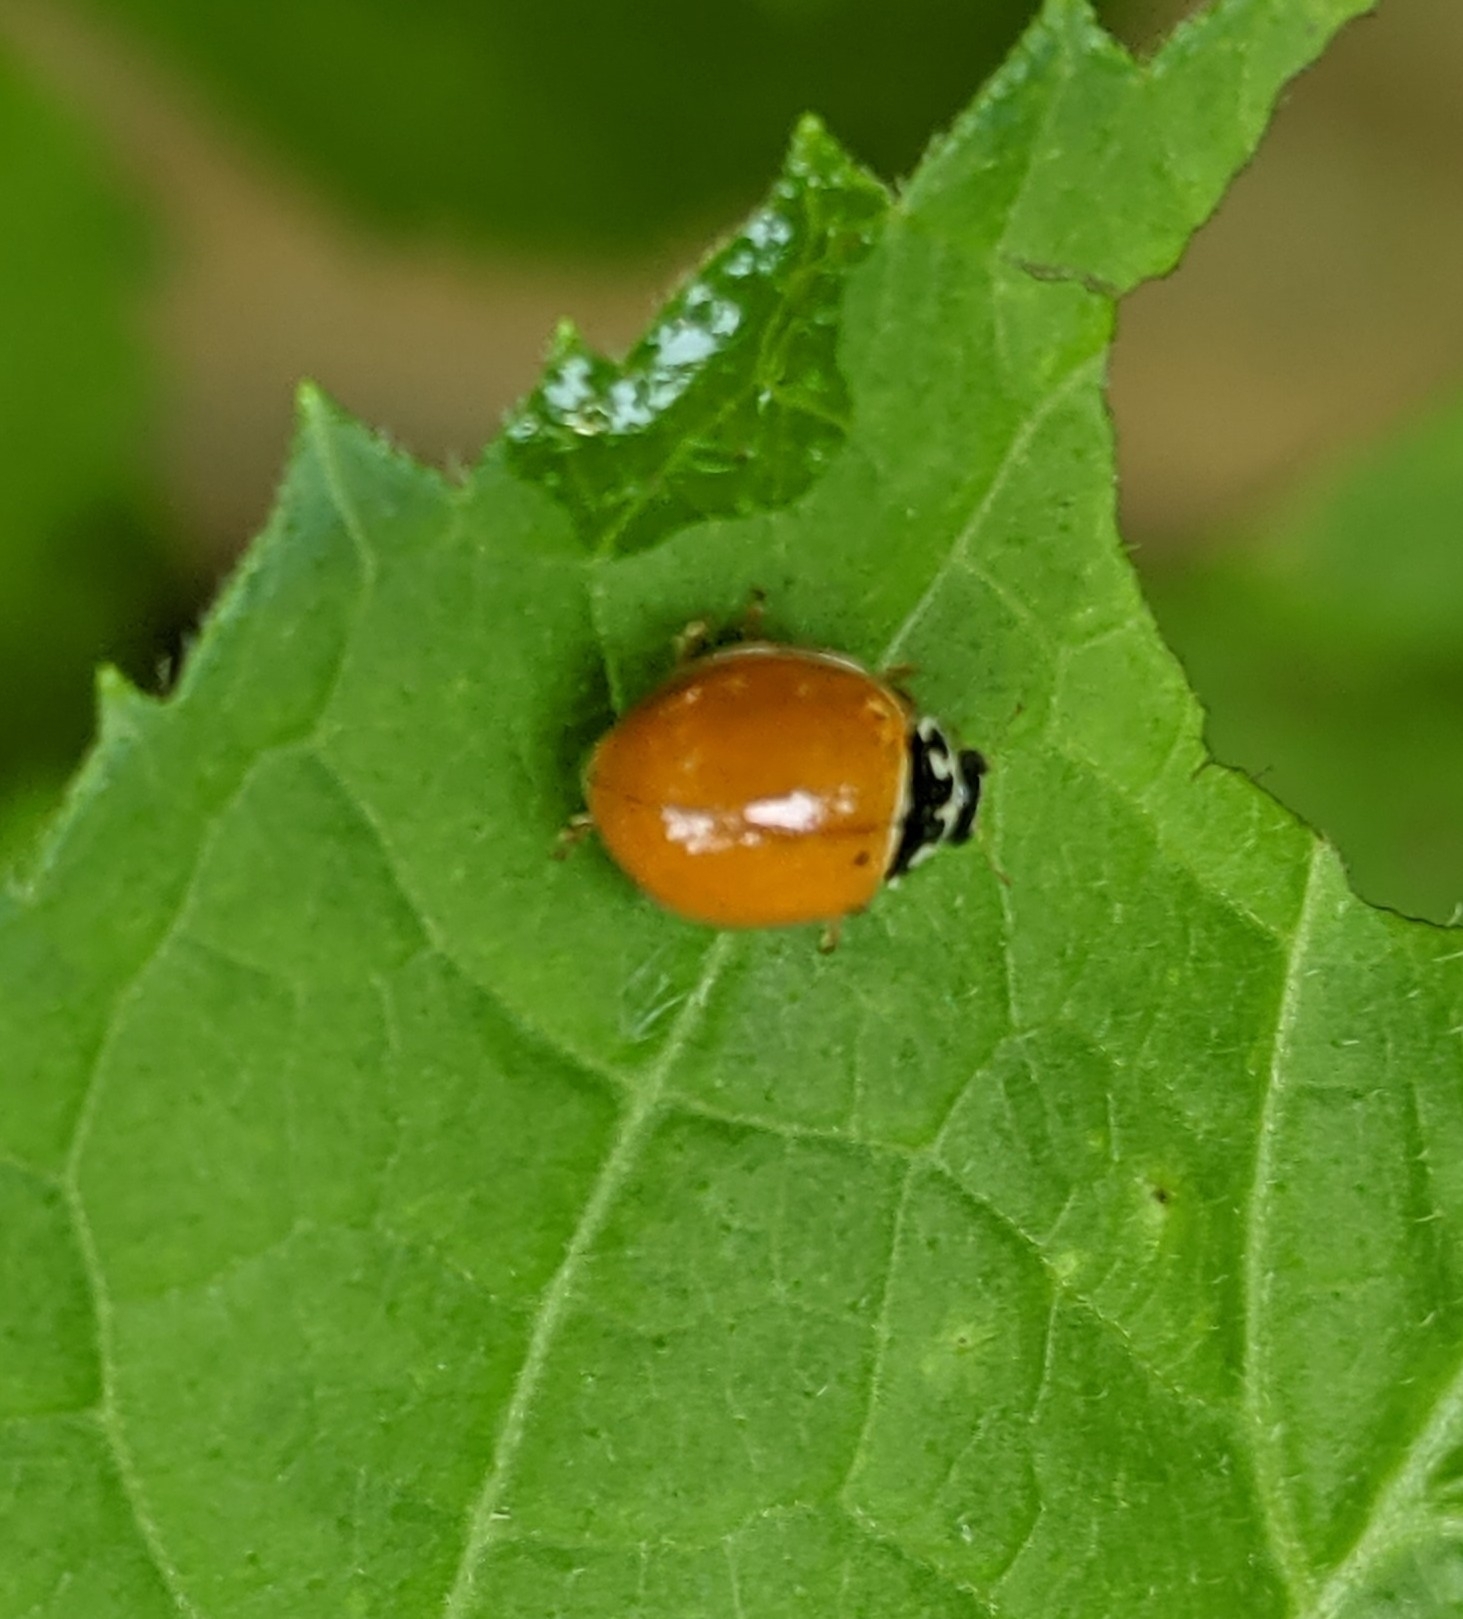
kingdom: Animalia
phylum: Arthropoda
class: Insecta
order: Coleoptera
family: Coccinellidae
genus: Cycloneda
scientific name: Cycloneda munda
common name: Polished lady beetle
